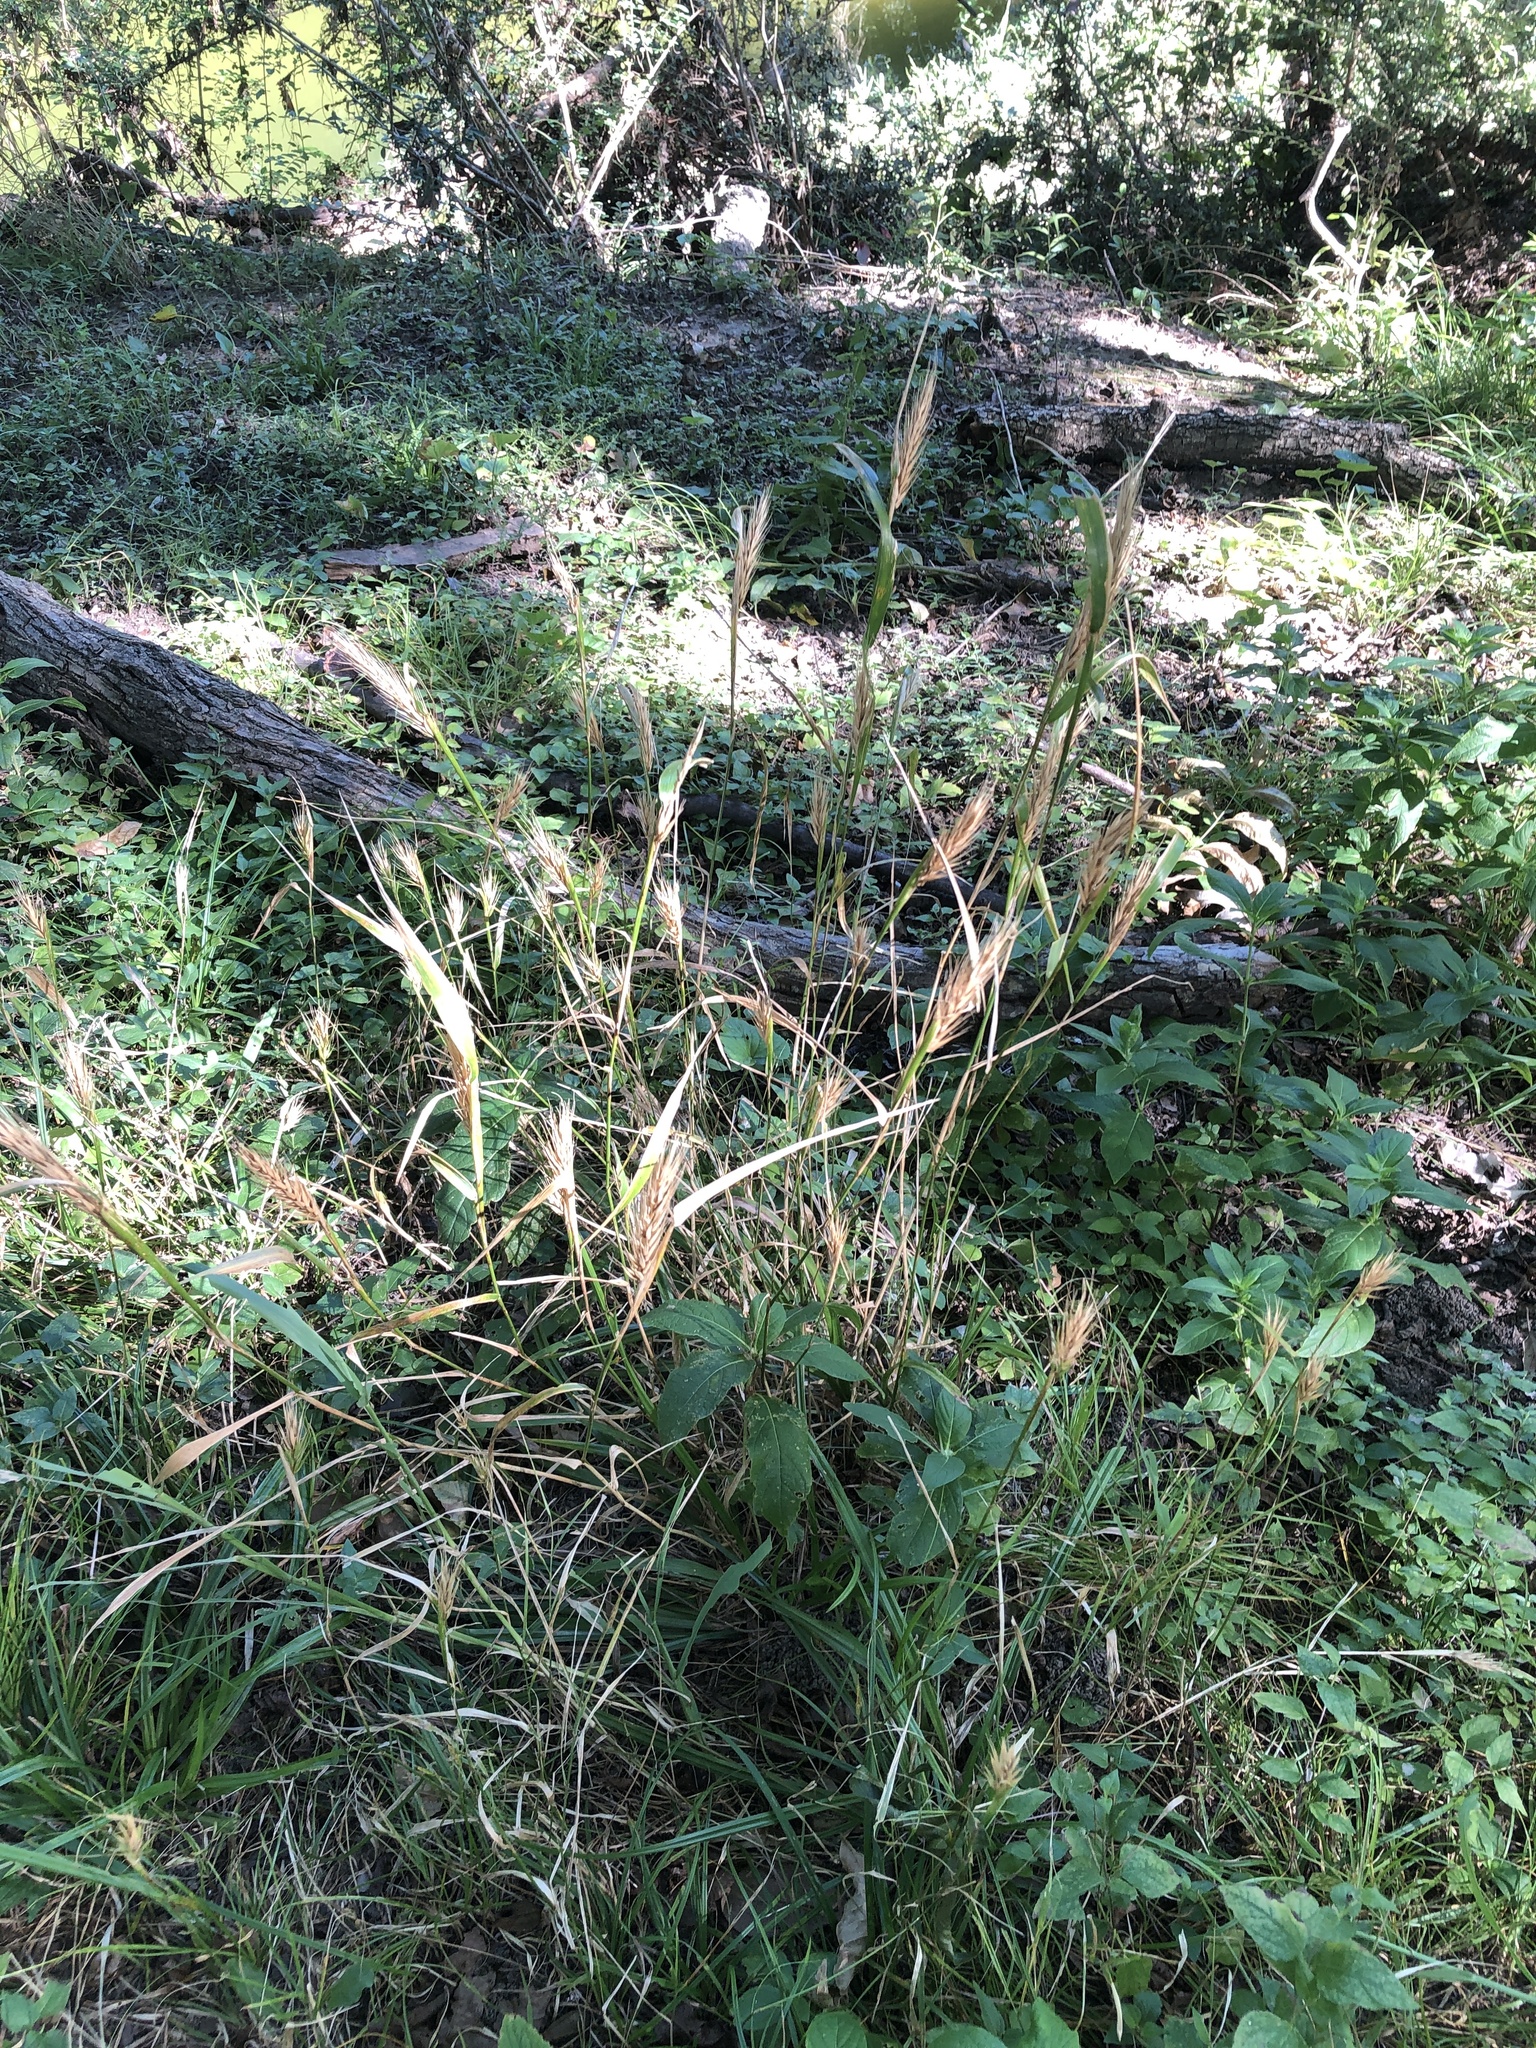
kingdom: Plantae
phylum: Tracheophyta
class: Liliopsida
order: Poales
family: Poaceae
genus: Elymus
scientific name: Elymus virginicus
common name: Common eastern wildrye
